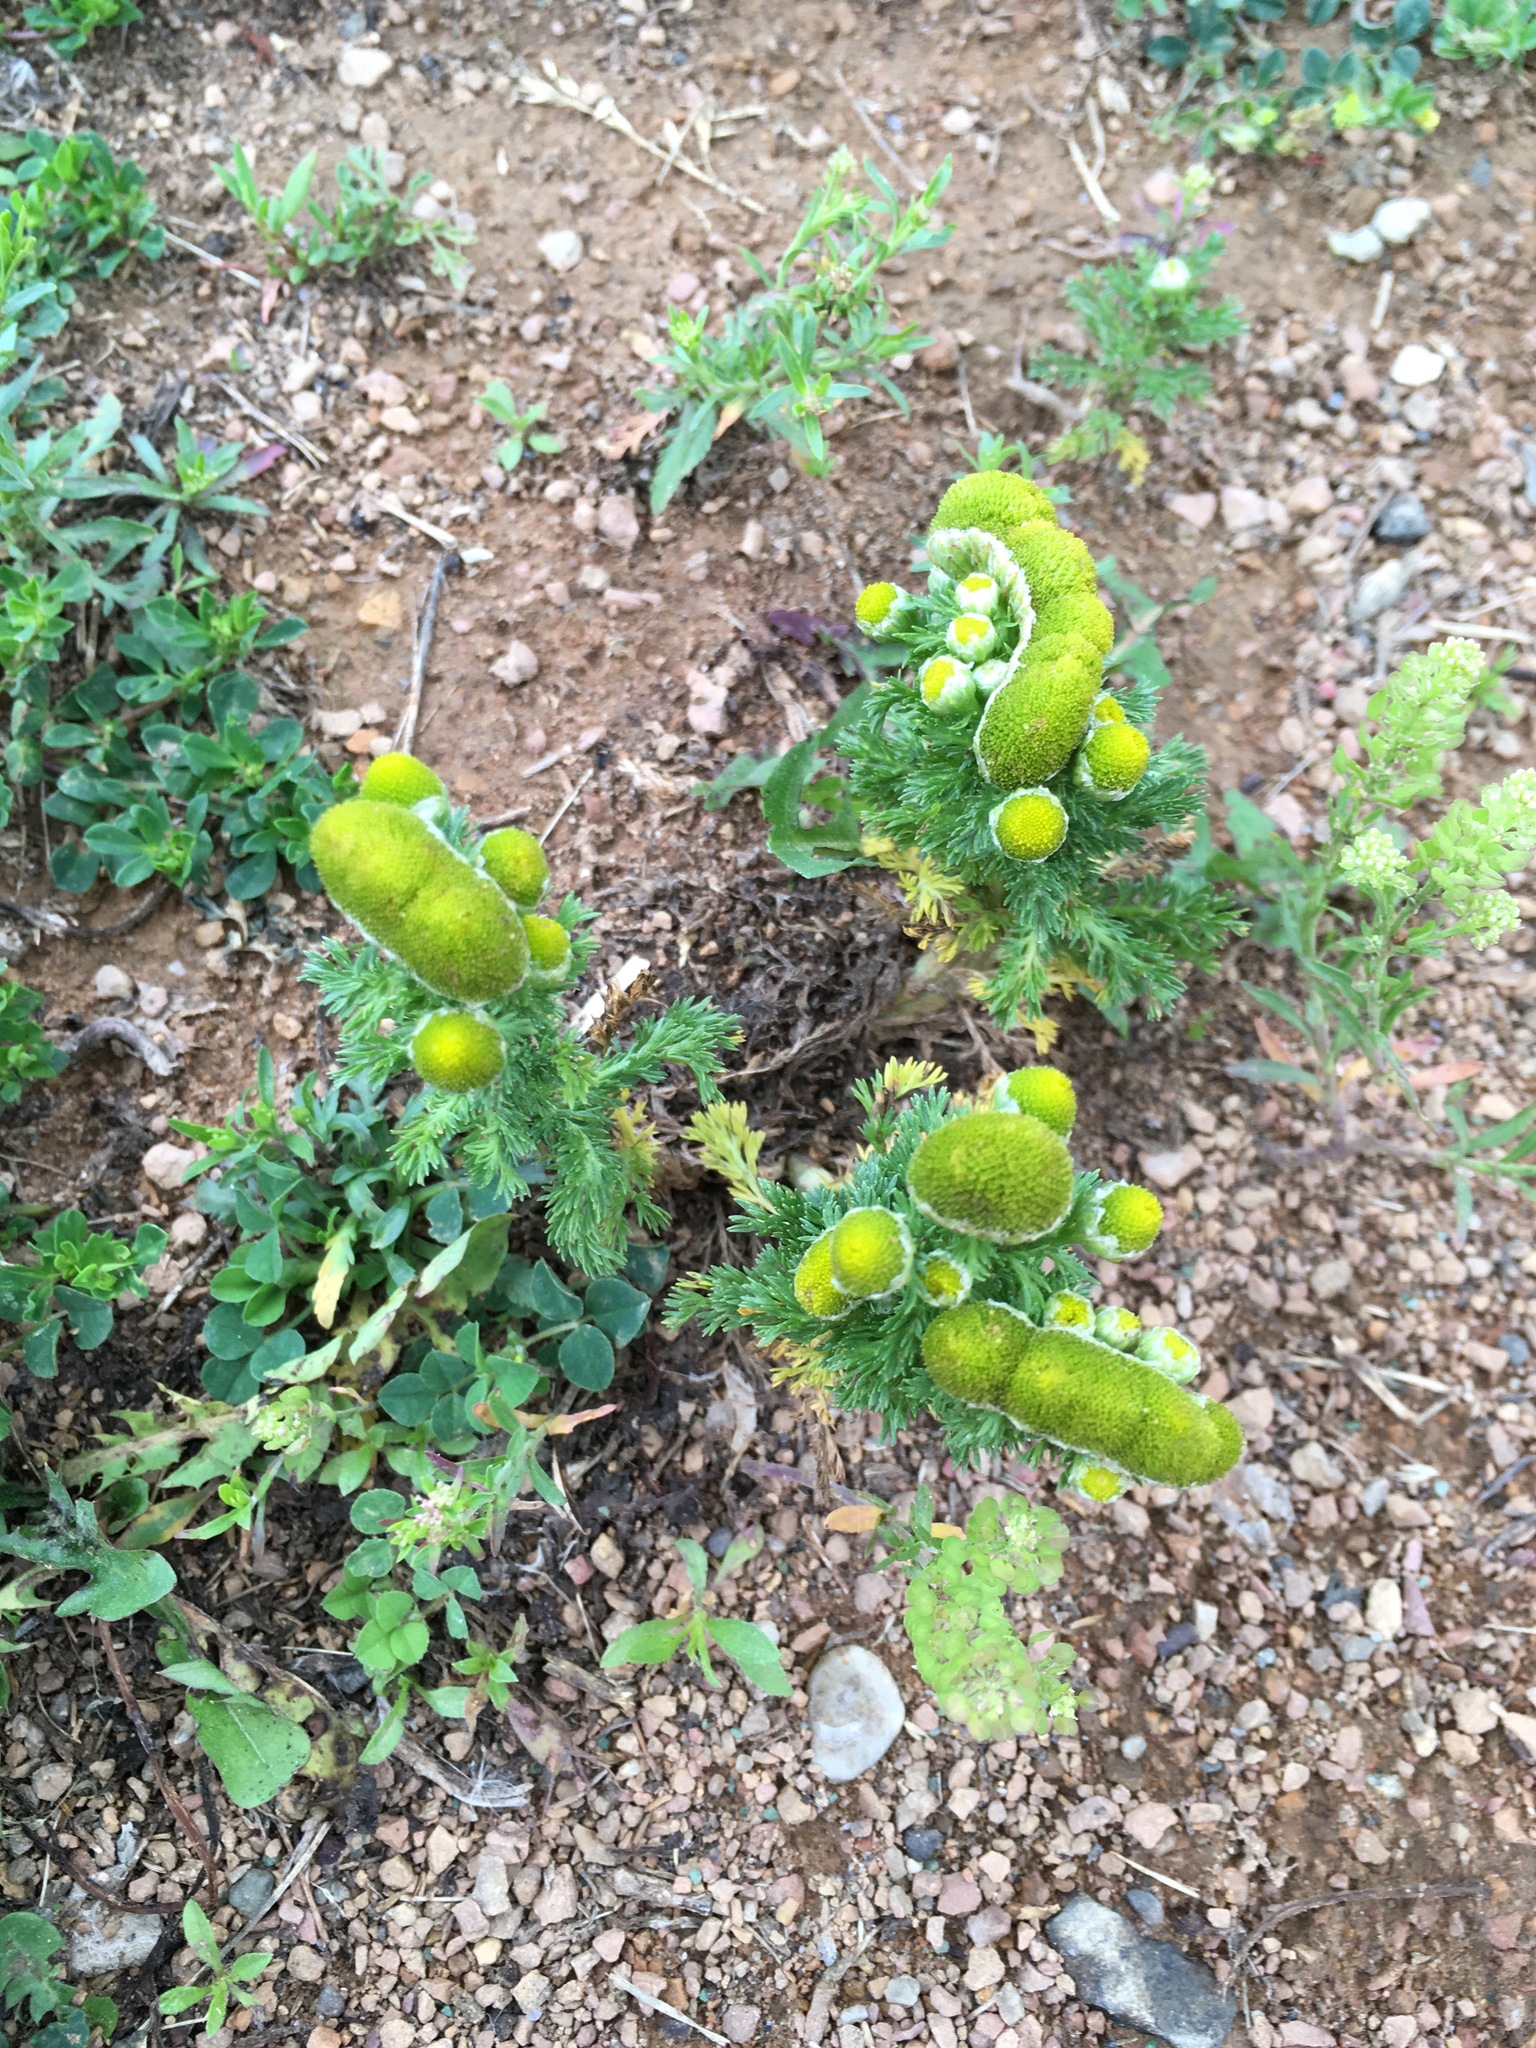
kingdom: Plantae
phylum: Tracheophyta
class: Magnoliopsida
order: Asterales
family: Asteraceae
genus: Matricaria
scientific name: Matricaria discoidea
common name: Disc mayweed
